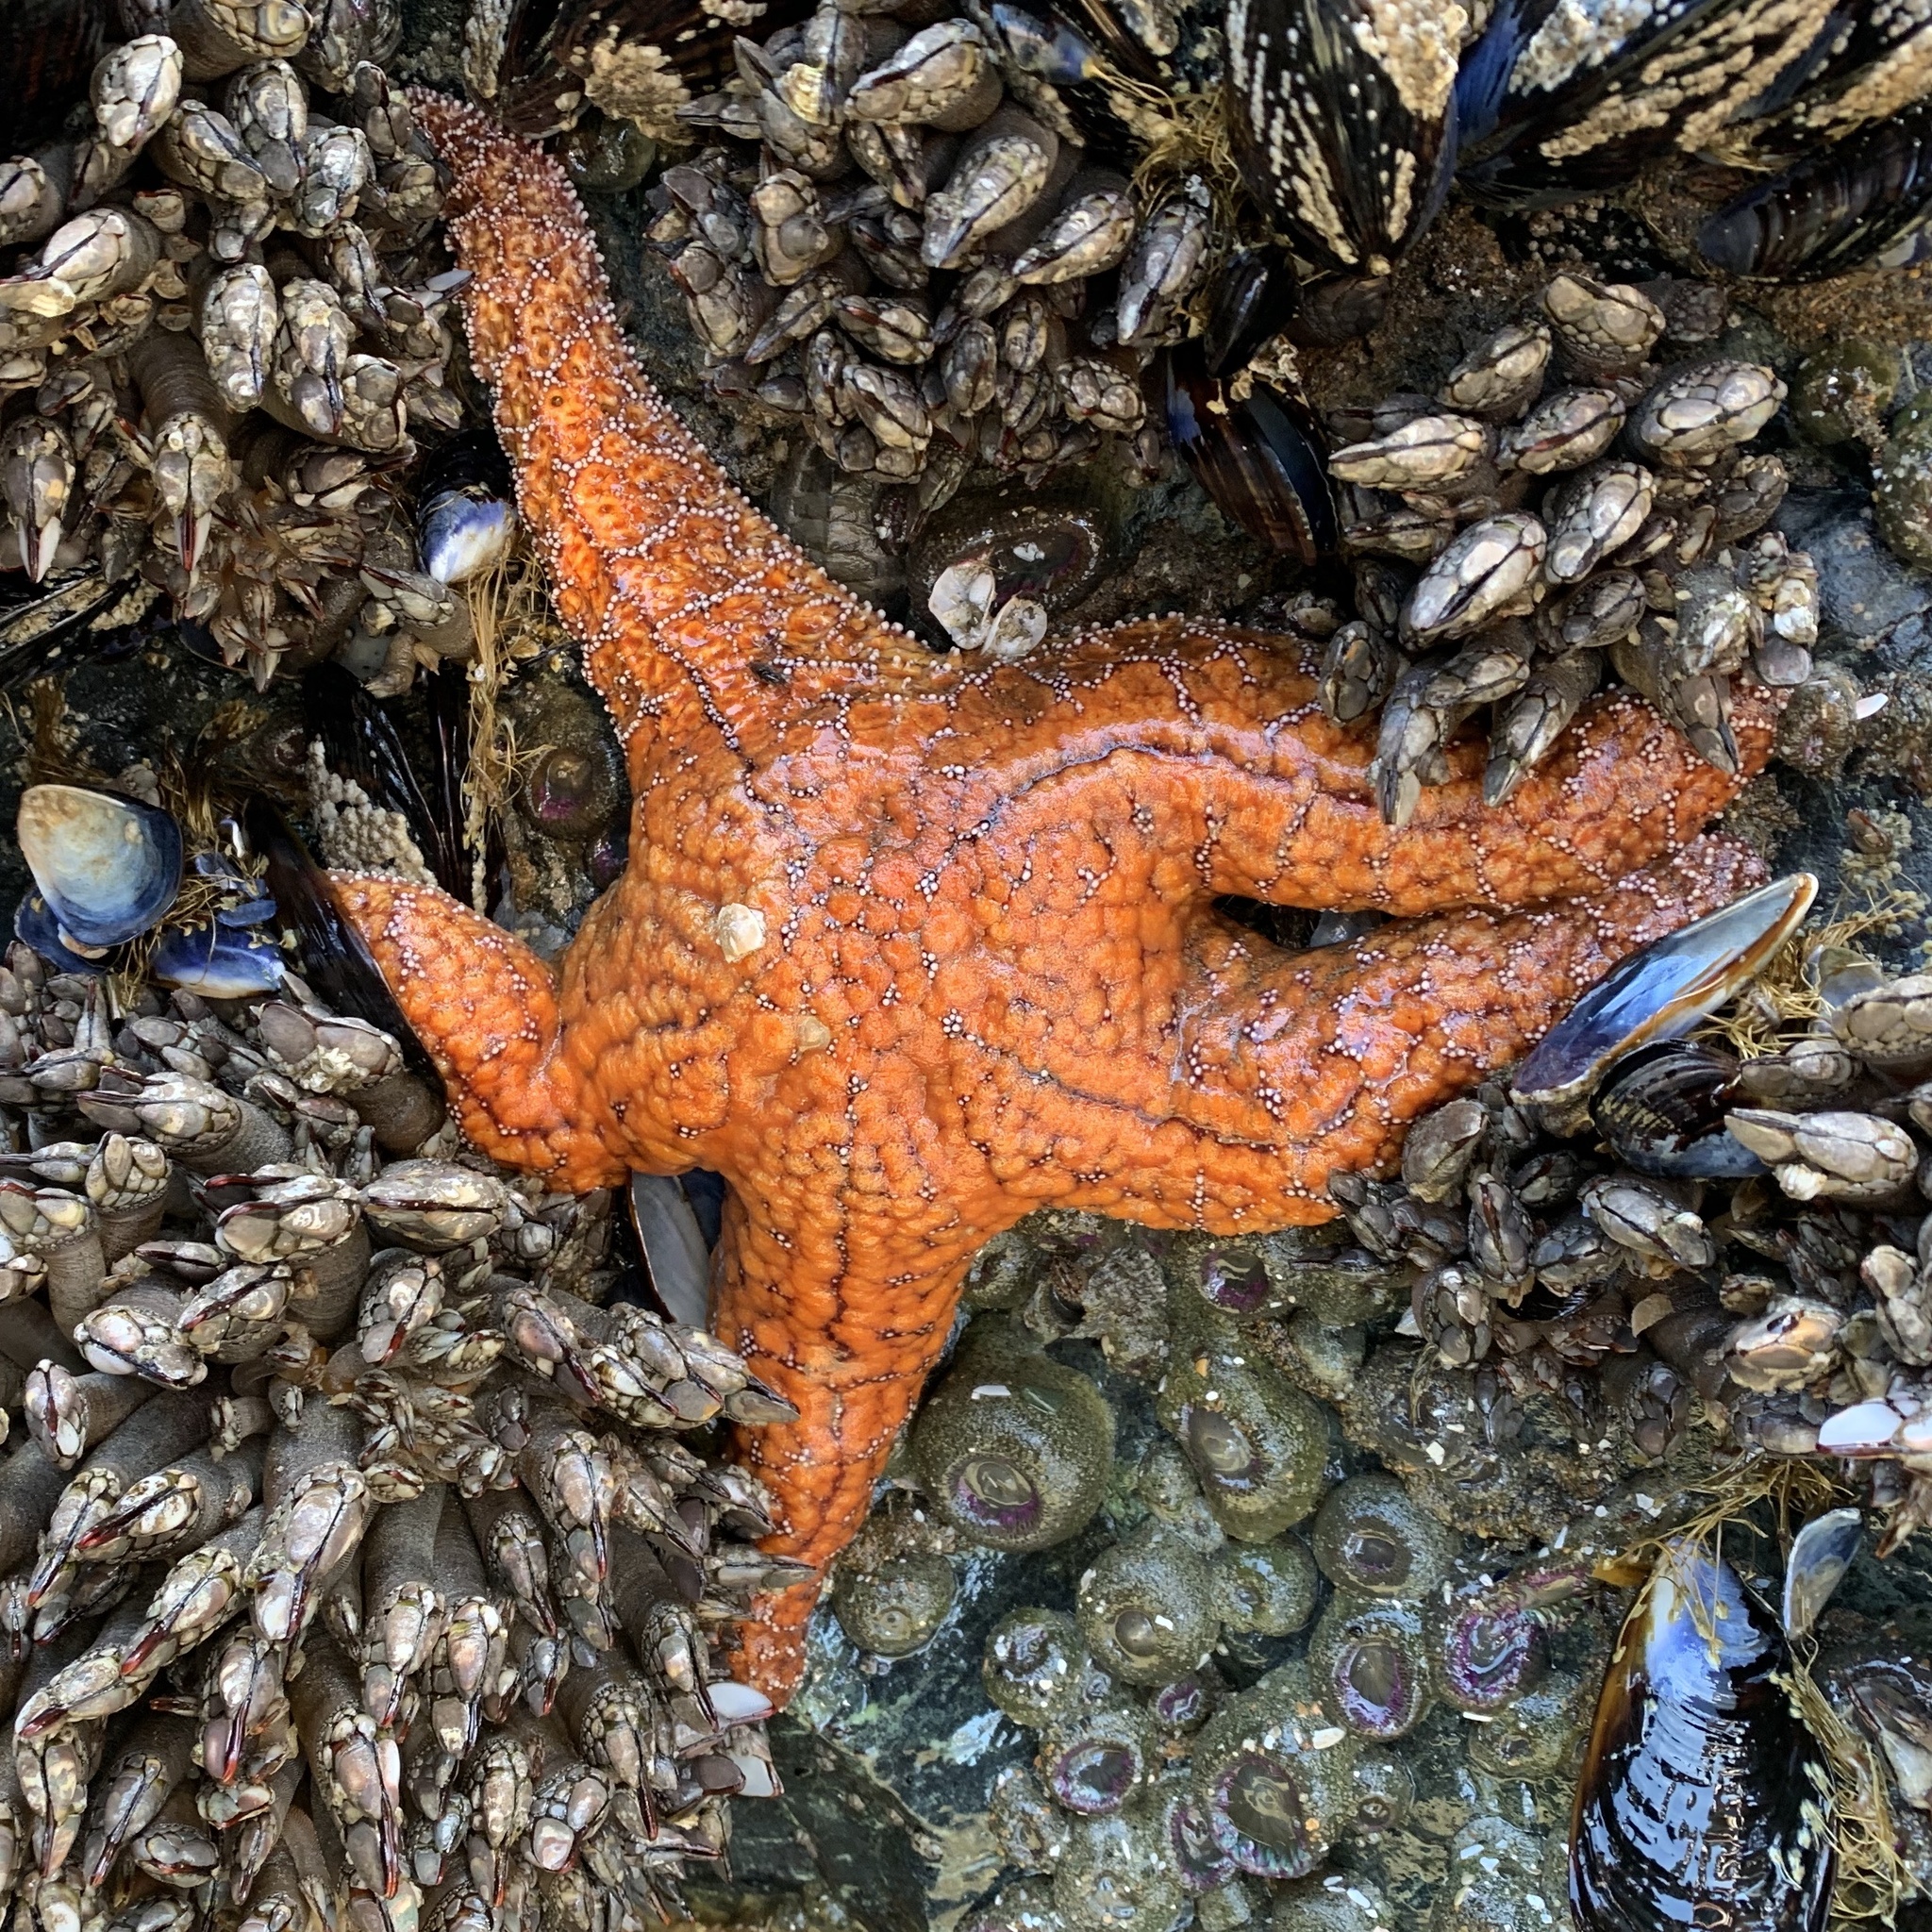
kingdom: Animalia
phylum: Echinodermata
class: Asteroidea
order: Forcipulatida
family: Asteriidae
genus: Pisaster
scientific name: Pisaster ochraceus
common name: Ochre stars
